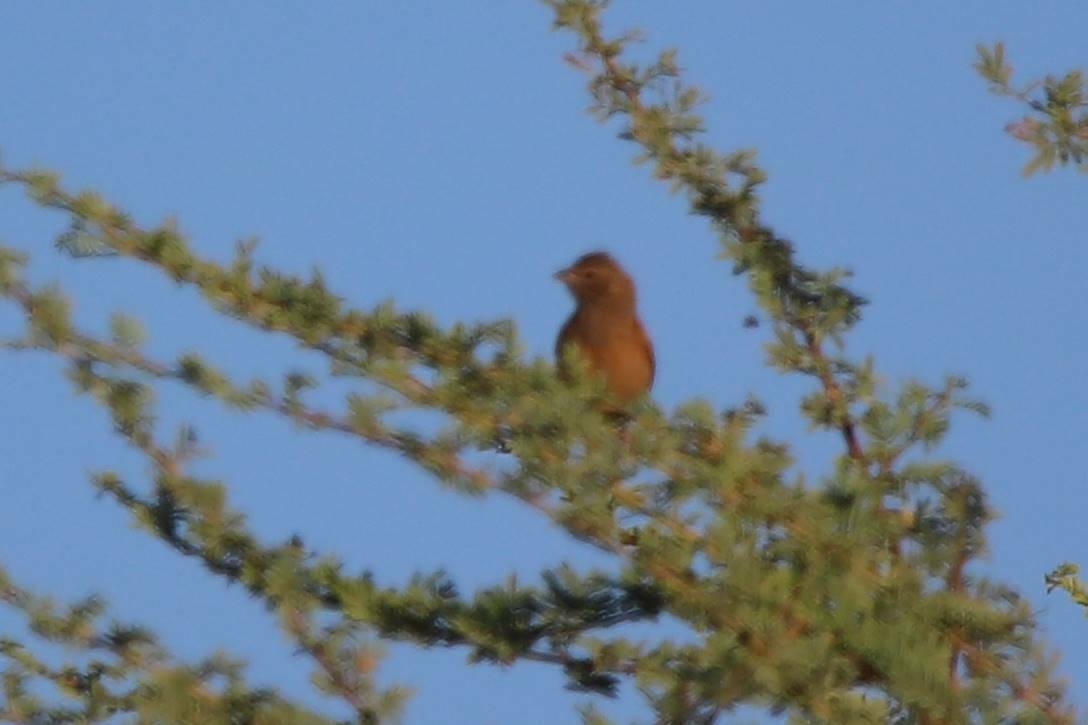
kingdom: Animalia
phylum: Chordata
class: Aves
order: Passeriformes
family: Emberizidae
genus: Emberiza
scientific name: Emberiza sahari
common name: House bunting
